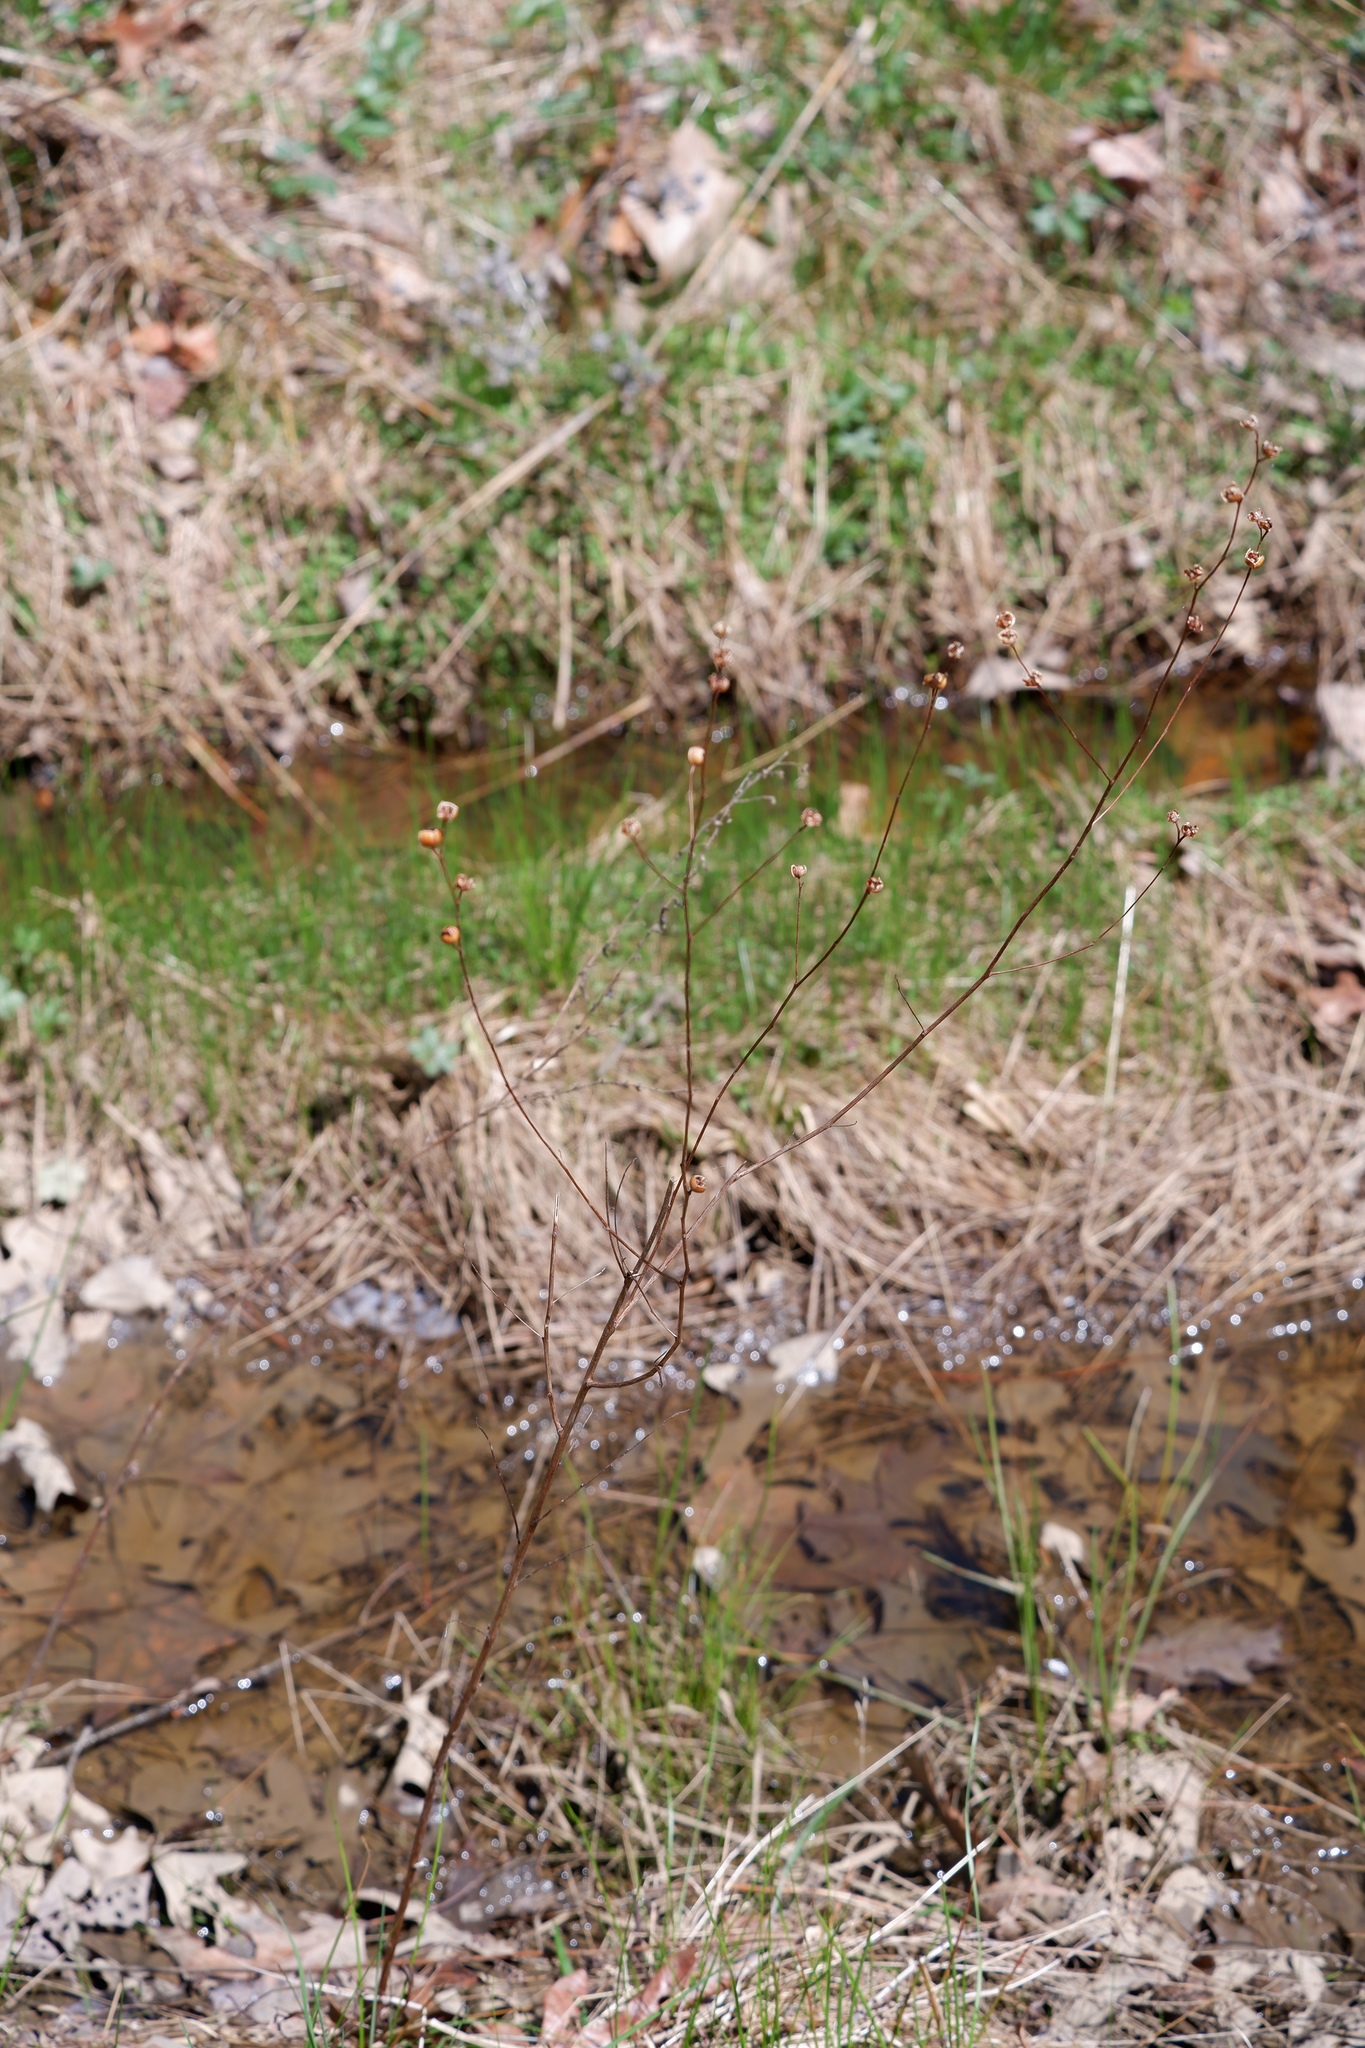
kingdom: Plantae
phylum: Tracheophyta
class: Magnoliopsida
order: Myrtales
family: Onagraceae
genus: Ludwigia
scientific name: Ludwigia alternifolia
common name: Rattlebox
